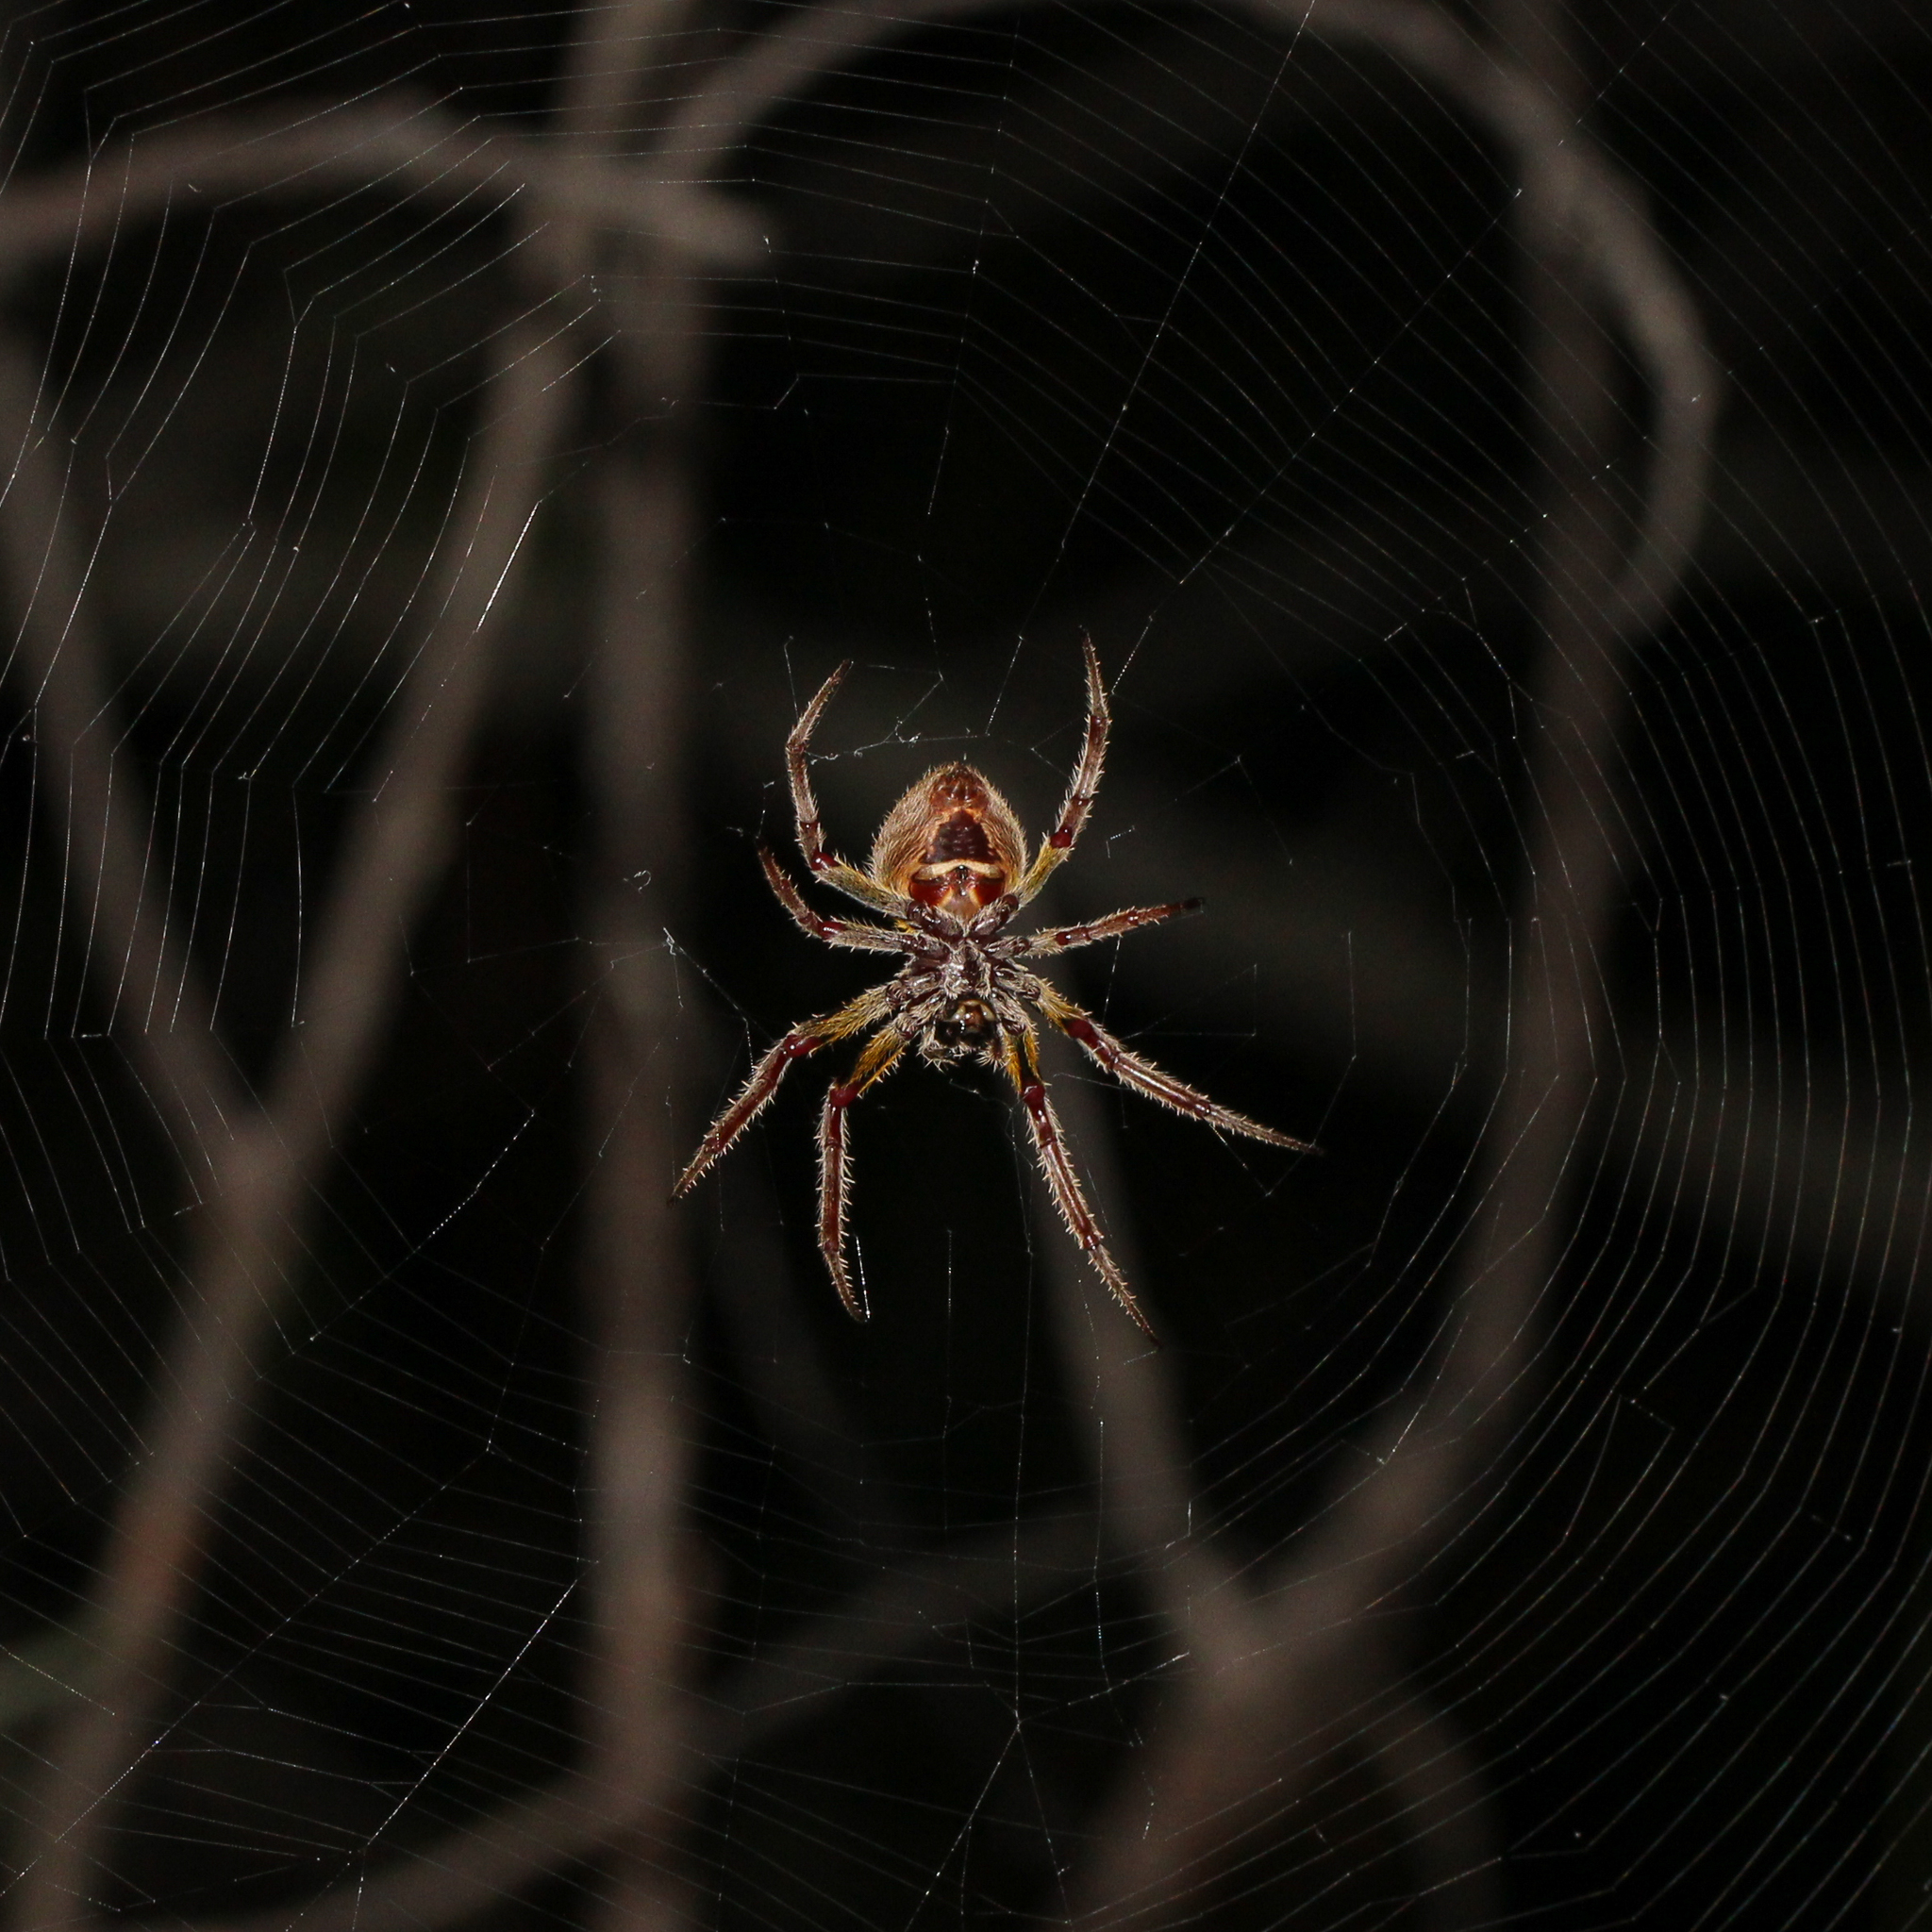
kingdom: Animalia
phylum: Arthropoda
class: Arachnida
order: Araneae
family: Araneidae
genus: Eriophora
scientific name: Eriophora ravilla
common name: Orb weavers
